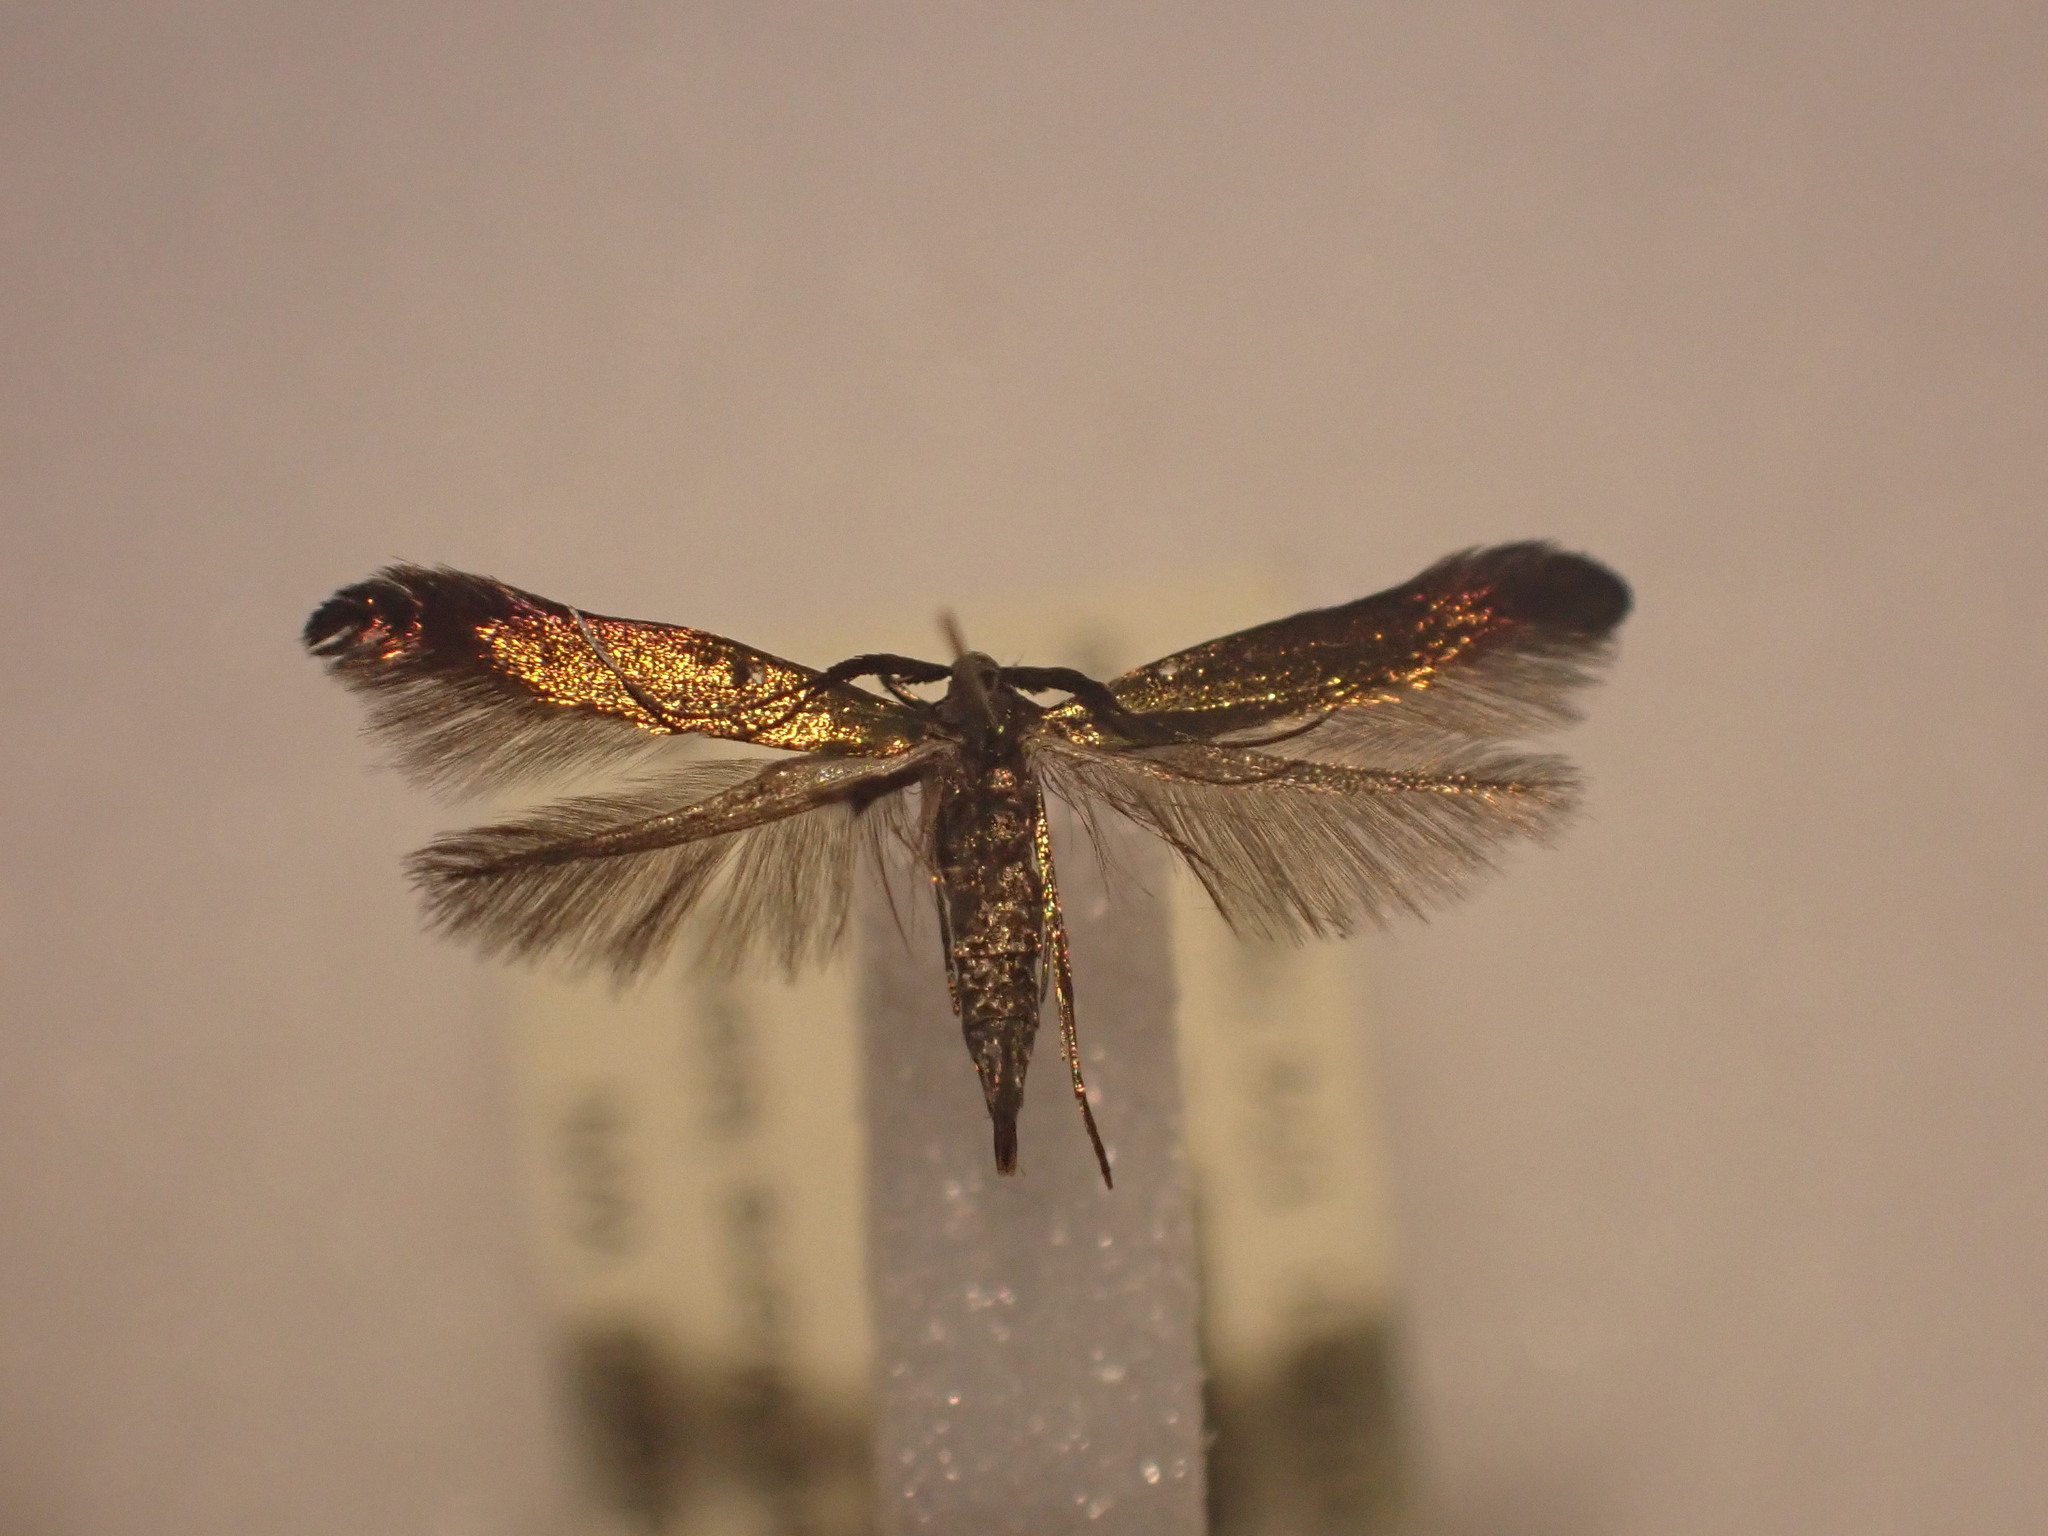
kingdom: Animalia
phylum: Arthropoda
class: Insecta
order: Lepidoptera
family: Coleophoridae
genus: Coleophora
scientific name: Coleophora deauratella
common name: Red-clover case-bearer
